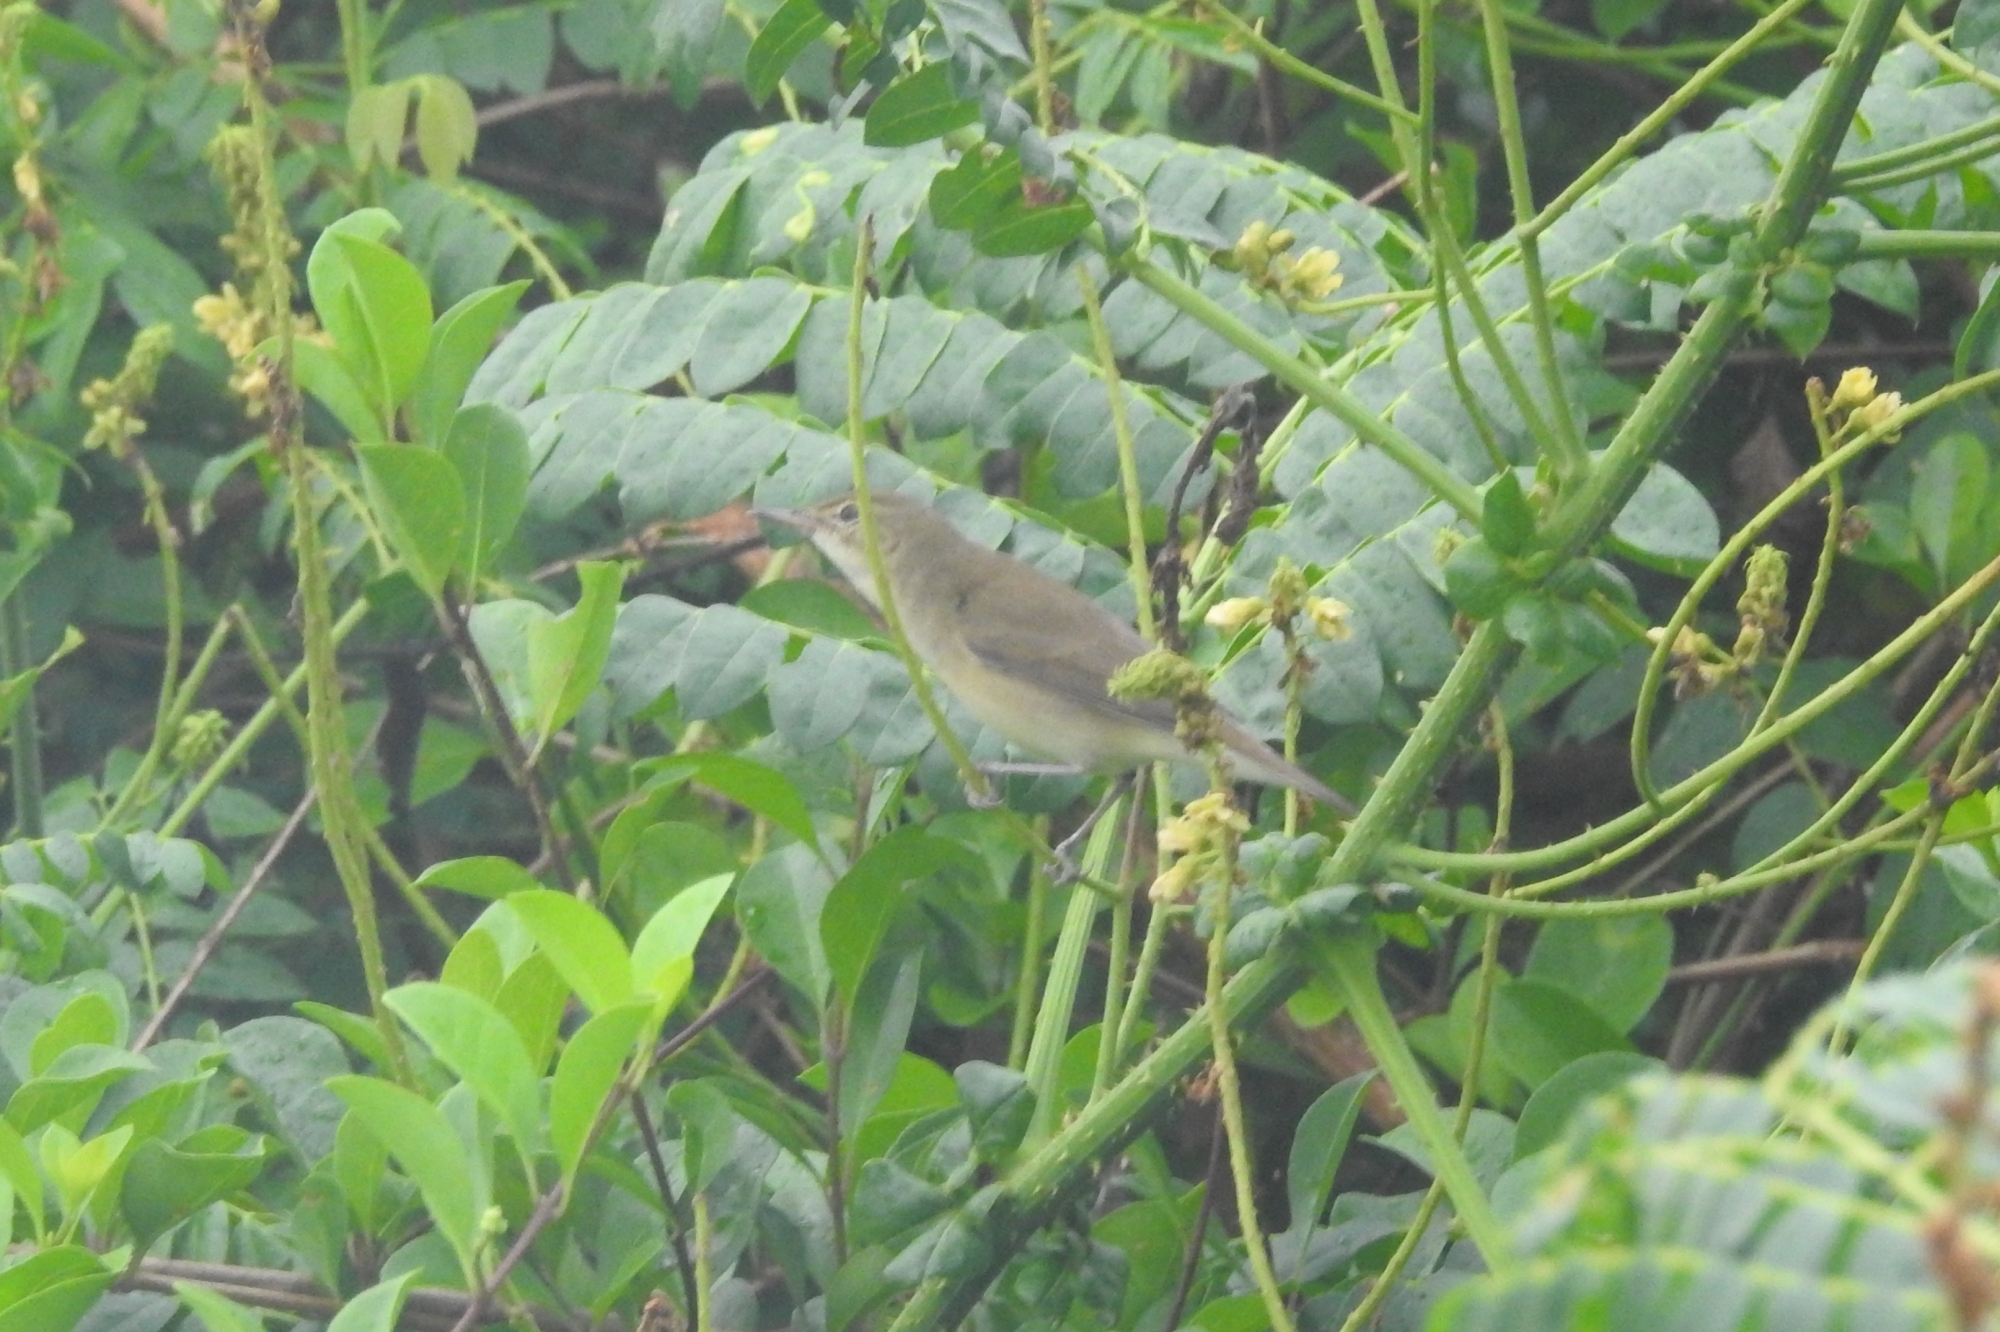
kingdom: Animalia
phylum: Chordata
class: Aves
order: Passeriformes
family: Acrocephalidae
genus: Acrocephalus
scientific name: Acrocephalus dumetorum
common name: Blyth's reed warbler
